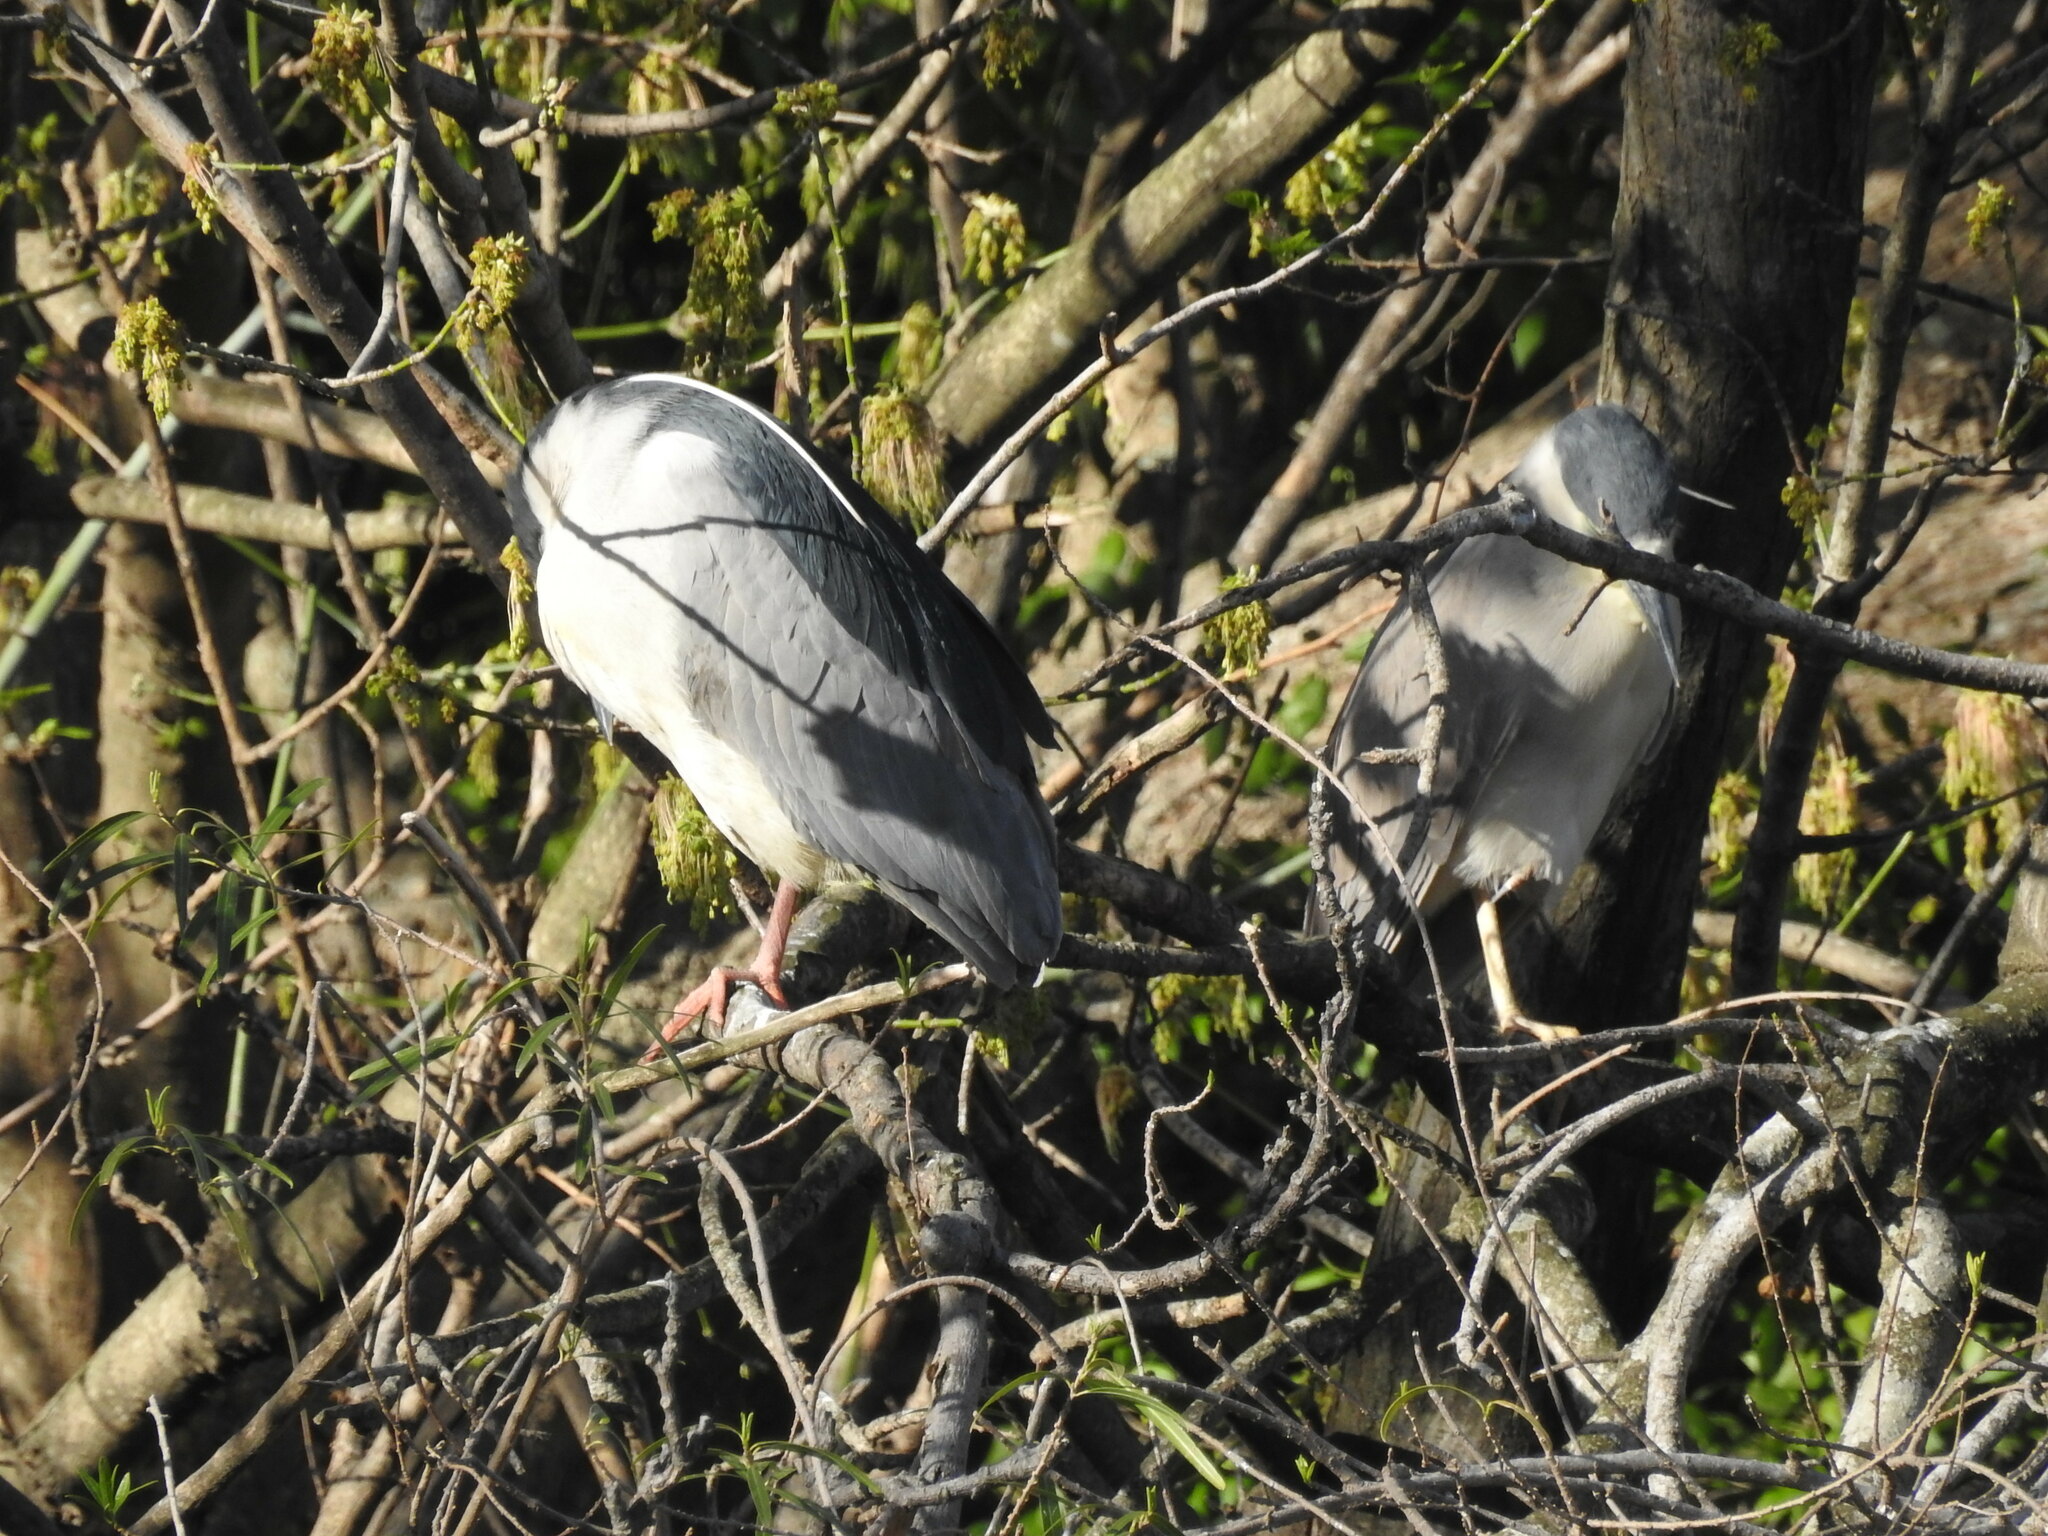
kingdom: Animalia
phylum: Chordata
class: Aves
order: Pelecaniformes
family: Ardeidae
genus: Nycticorax
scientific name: Nycticorax nycticorax
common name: Black-crowned night heron
